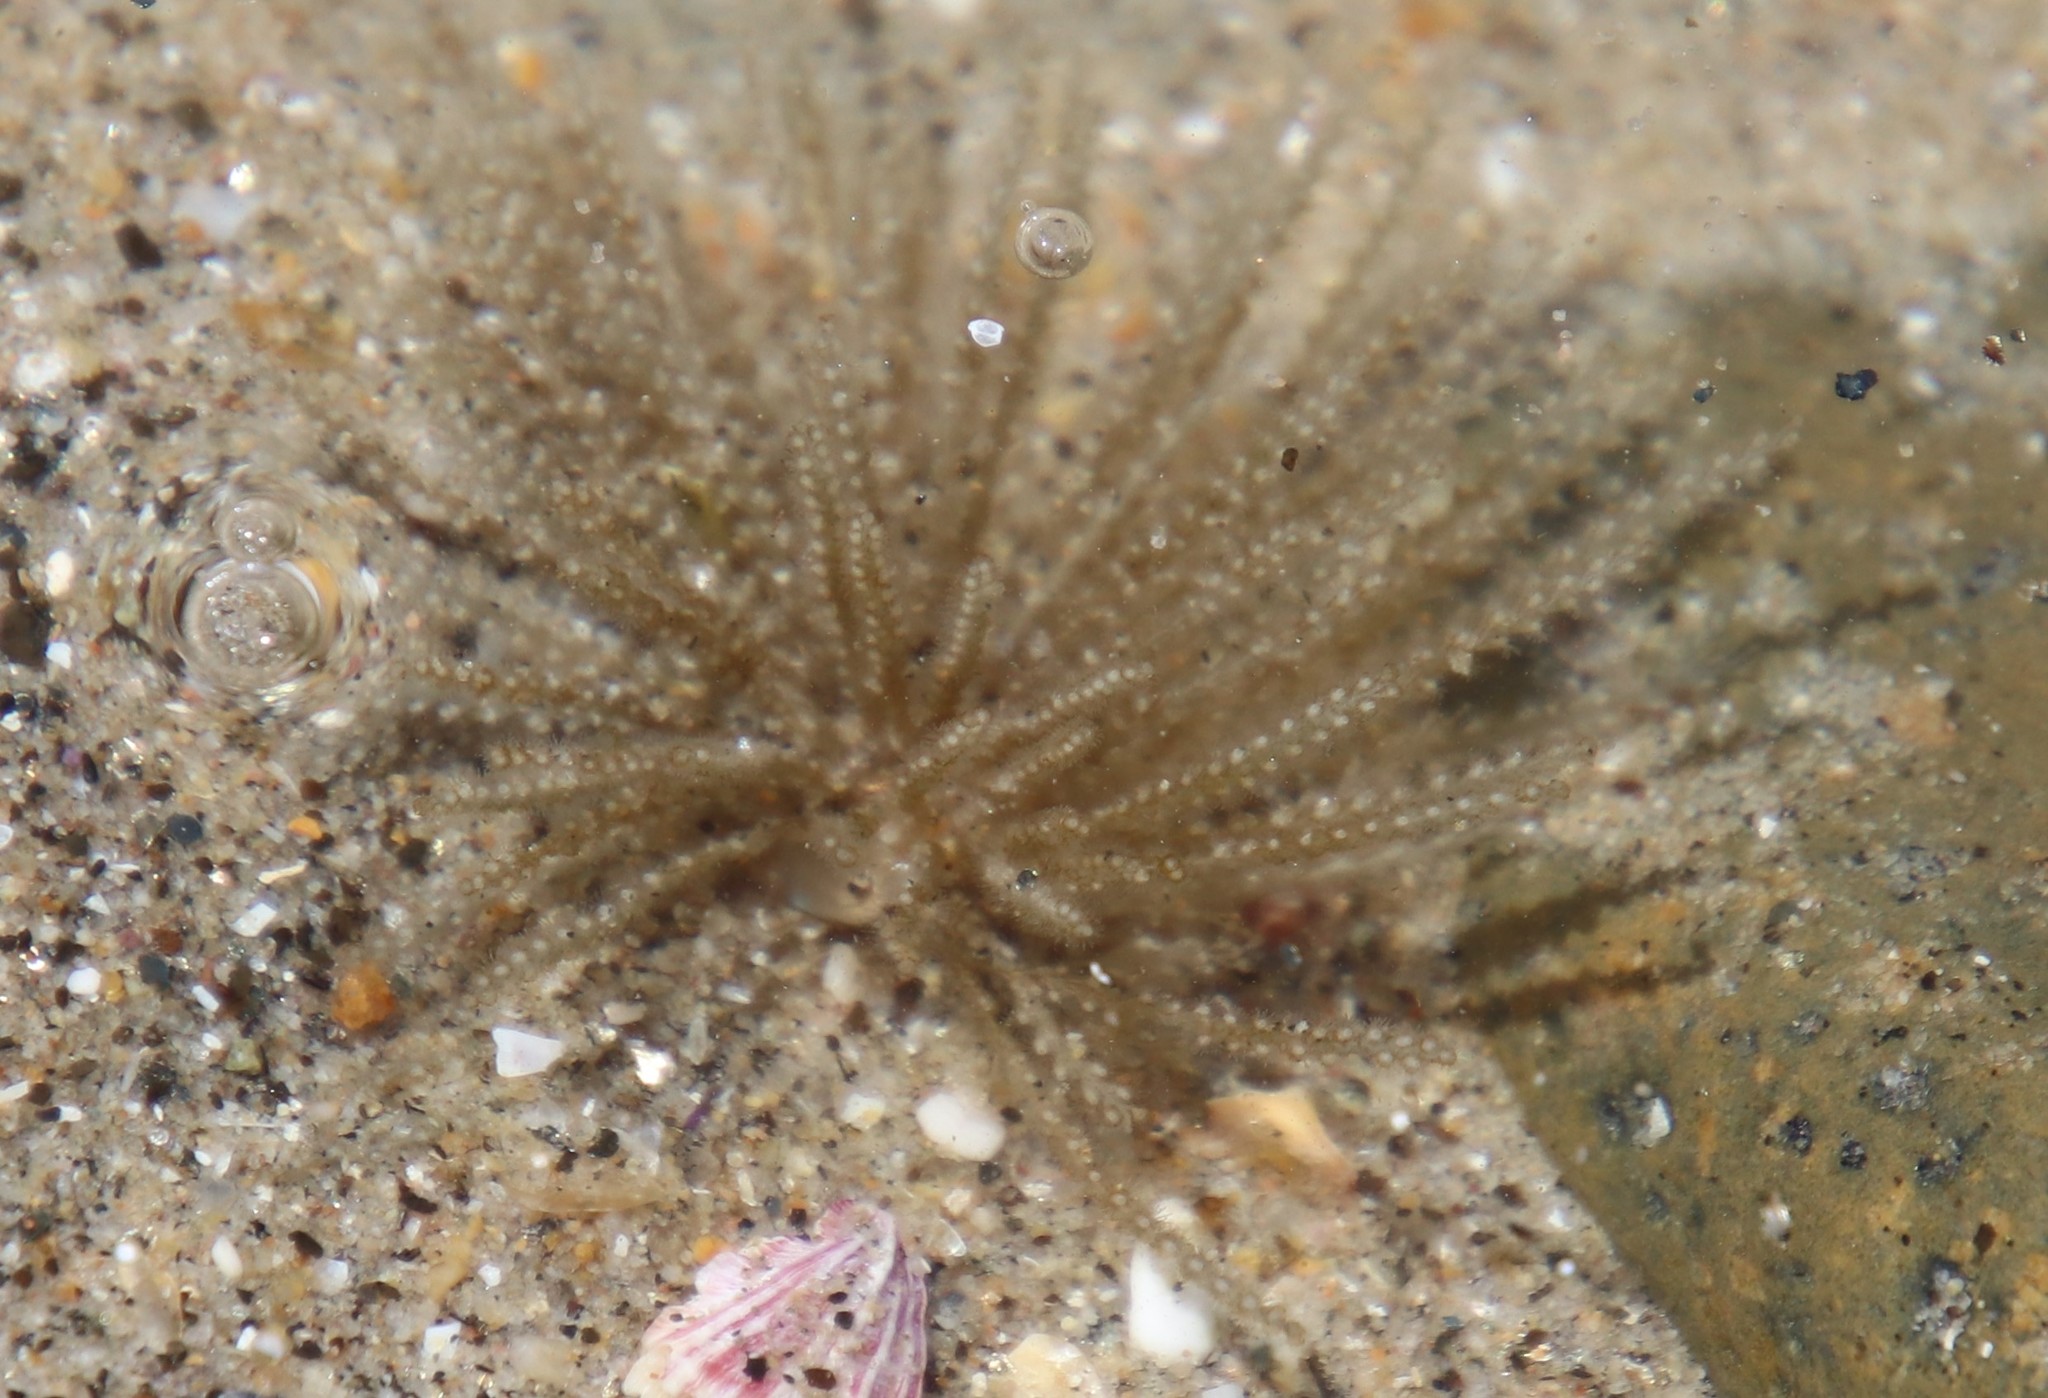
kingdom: Animalia
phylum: Cnidaria
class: Hydrozoa
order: Leptothecata
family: Lovenellidae
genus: Eucheilota
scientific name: Eucheilota bakeri
